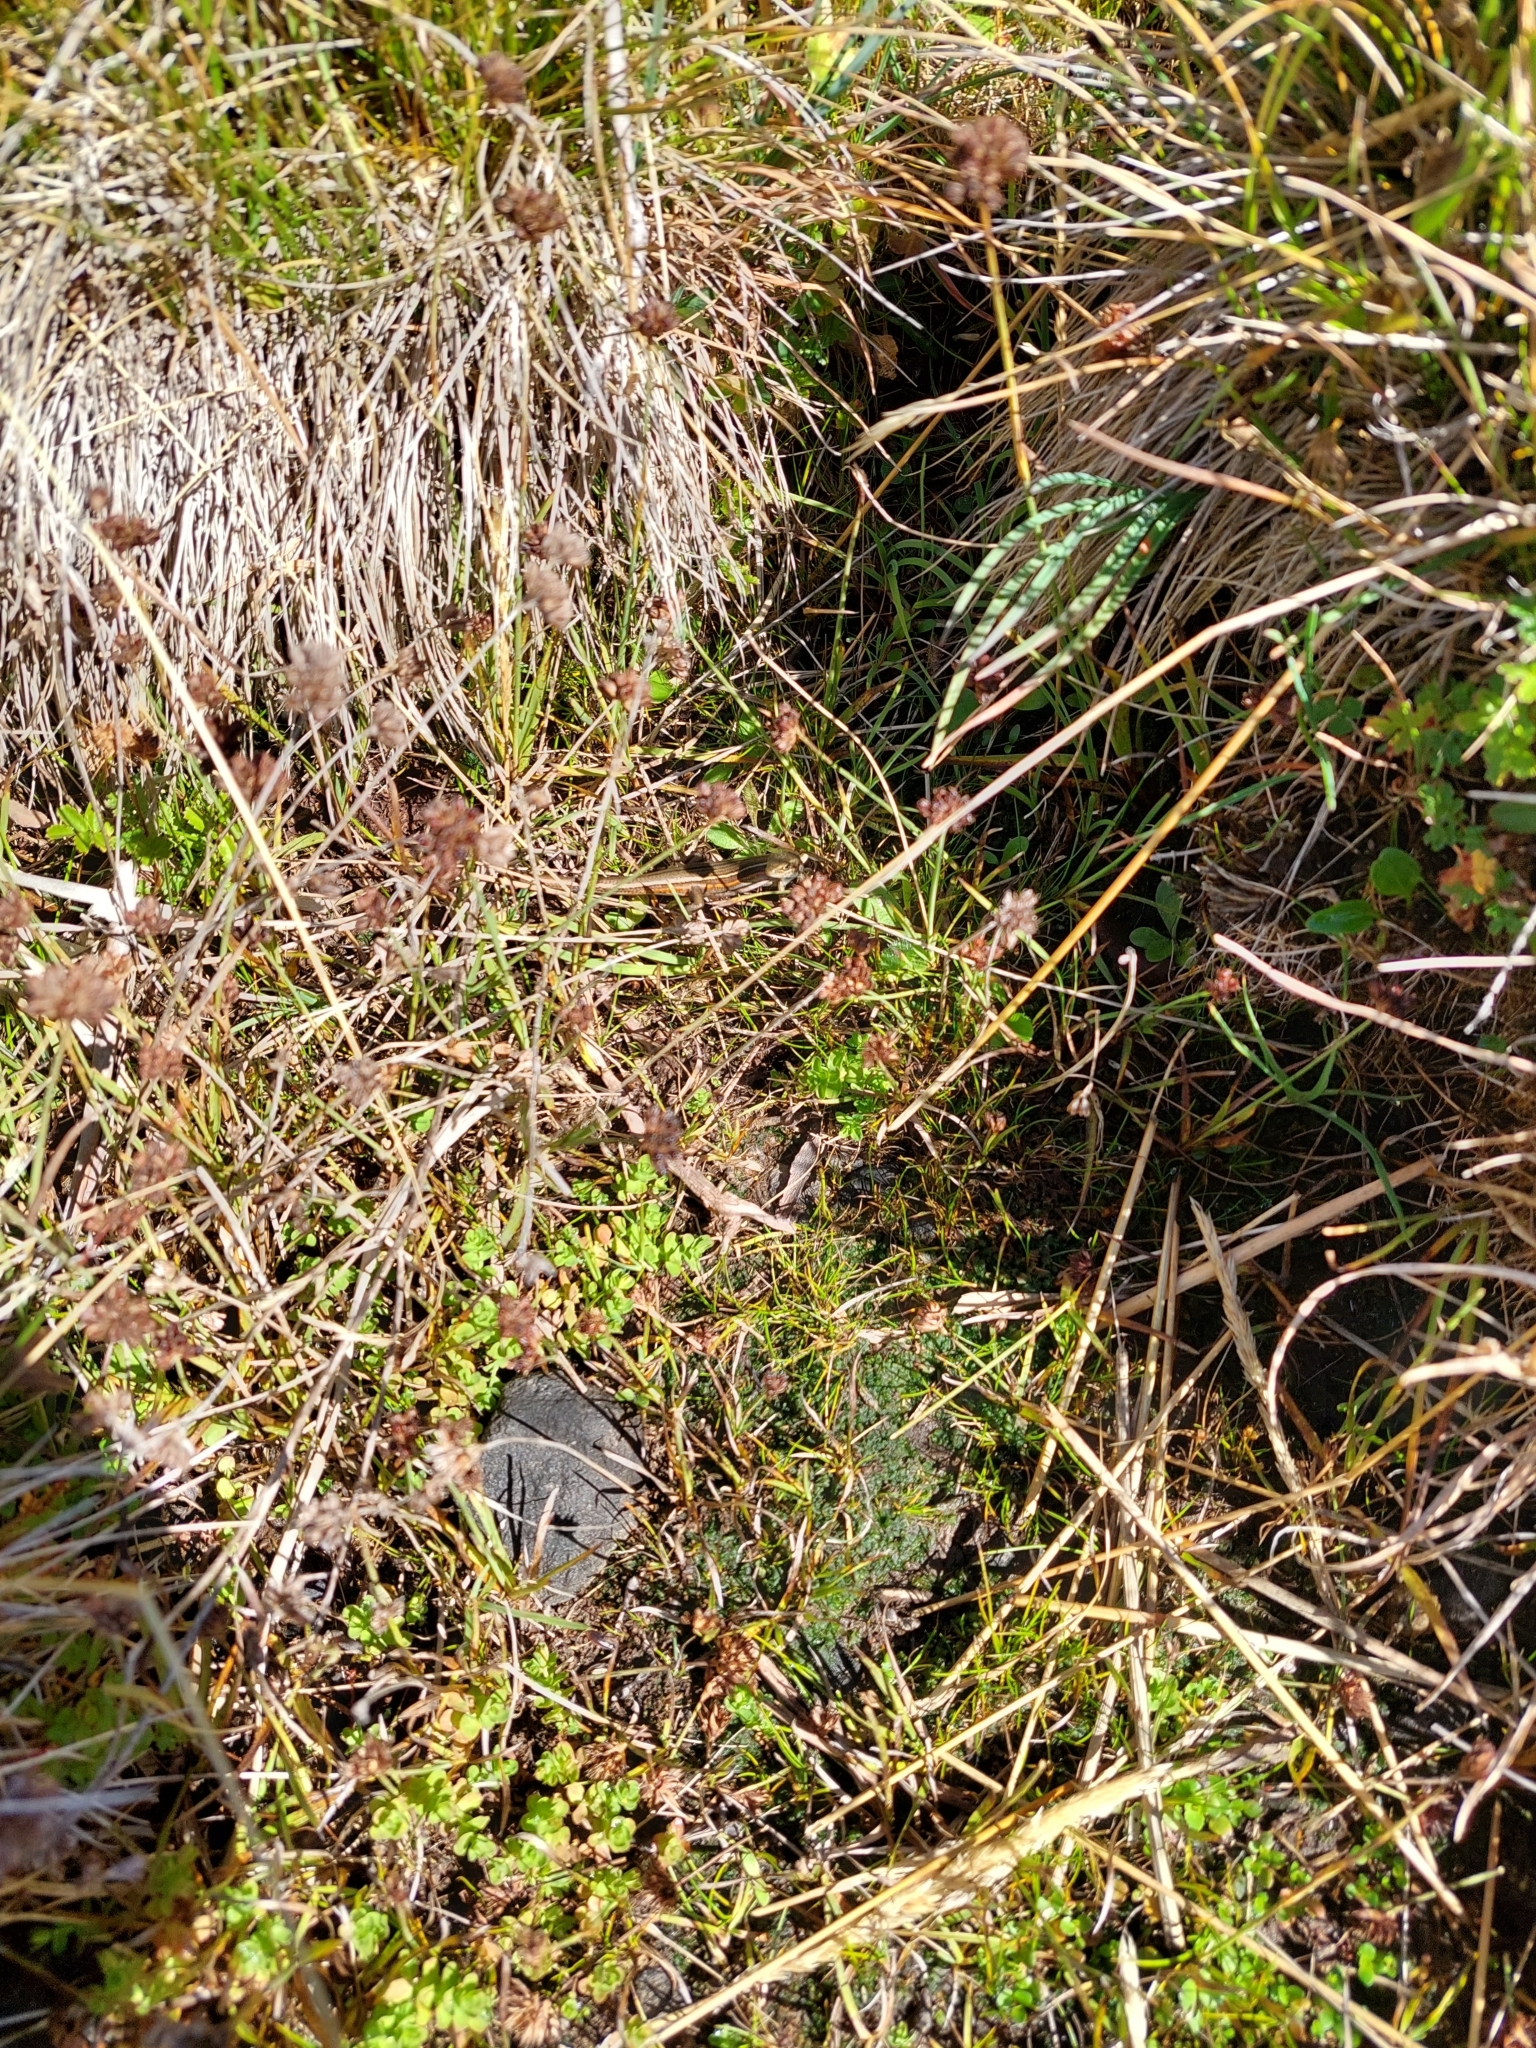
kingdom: Animalia
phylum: Chordata
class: Squamata
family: Scincidae
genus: Pseudemoia
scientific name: Pseudemoia pagenstecheri
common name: Southern grass tussock skink
